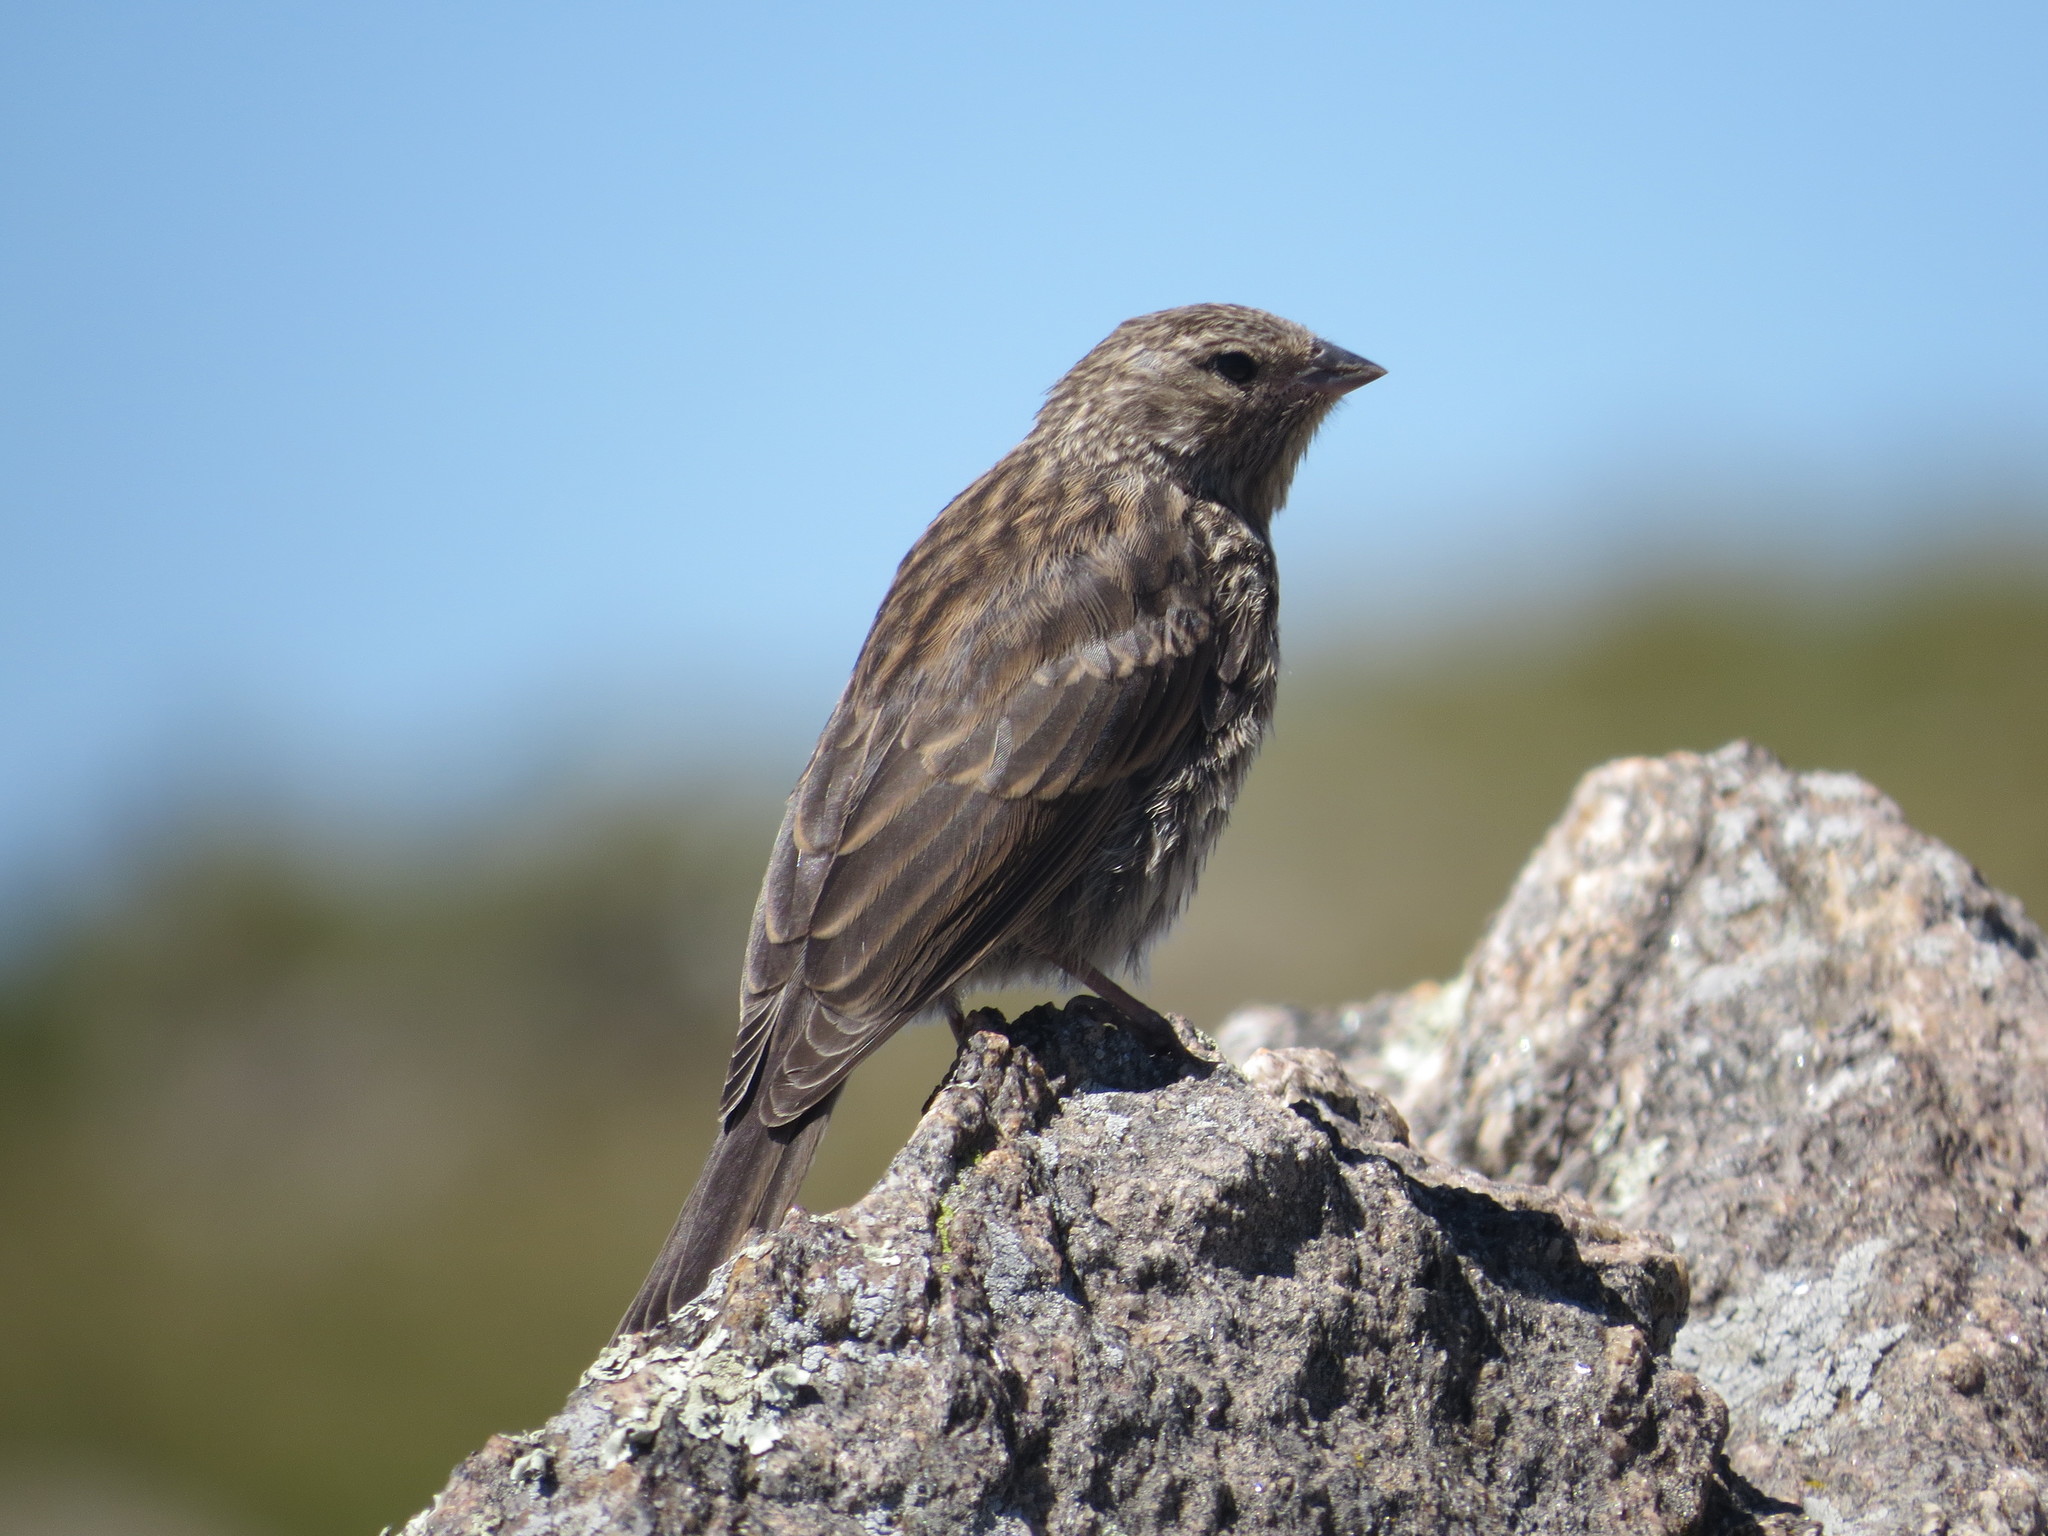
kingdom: Animalia
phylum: Chordata
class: Aves
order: Passeriformes
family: Thraupidae
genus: Geospizopsis
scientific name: Geospizopsis unicolor
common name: Plumbeous sierra-finch
